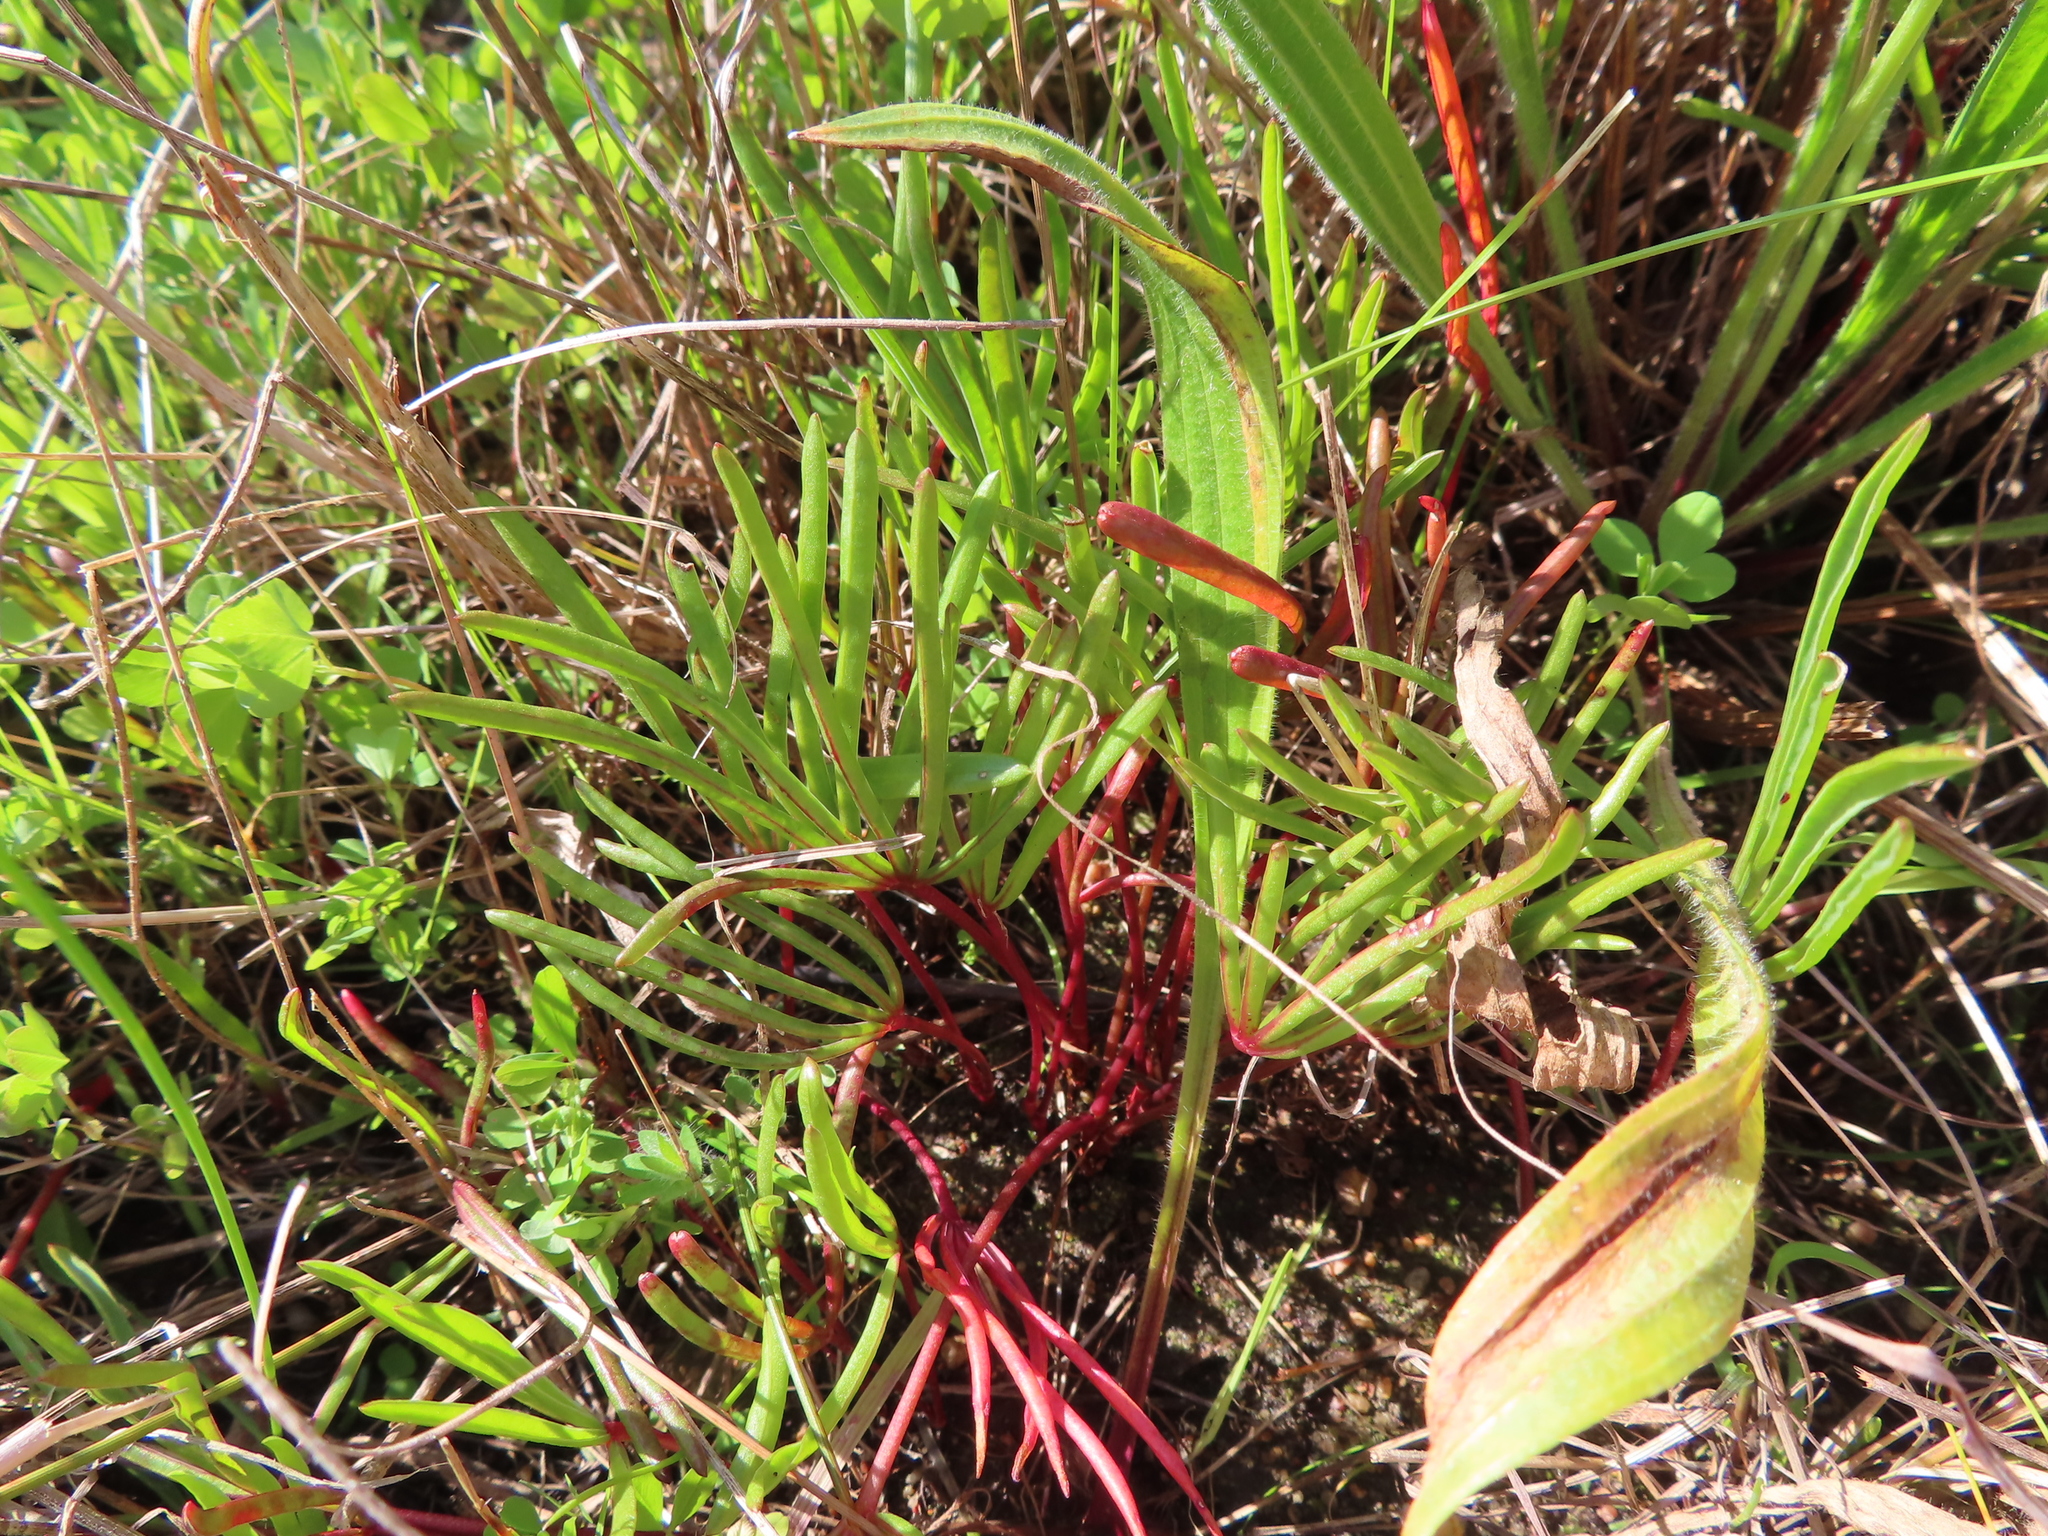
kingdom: Plantae
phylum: Tracheophyta
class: Magnoliopsida
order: Oxalidales
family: Oxalidaceae
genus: Oxalis
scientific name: Oxalis flava
